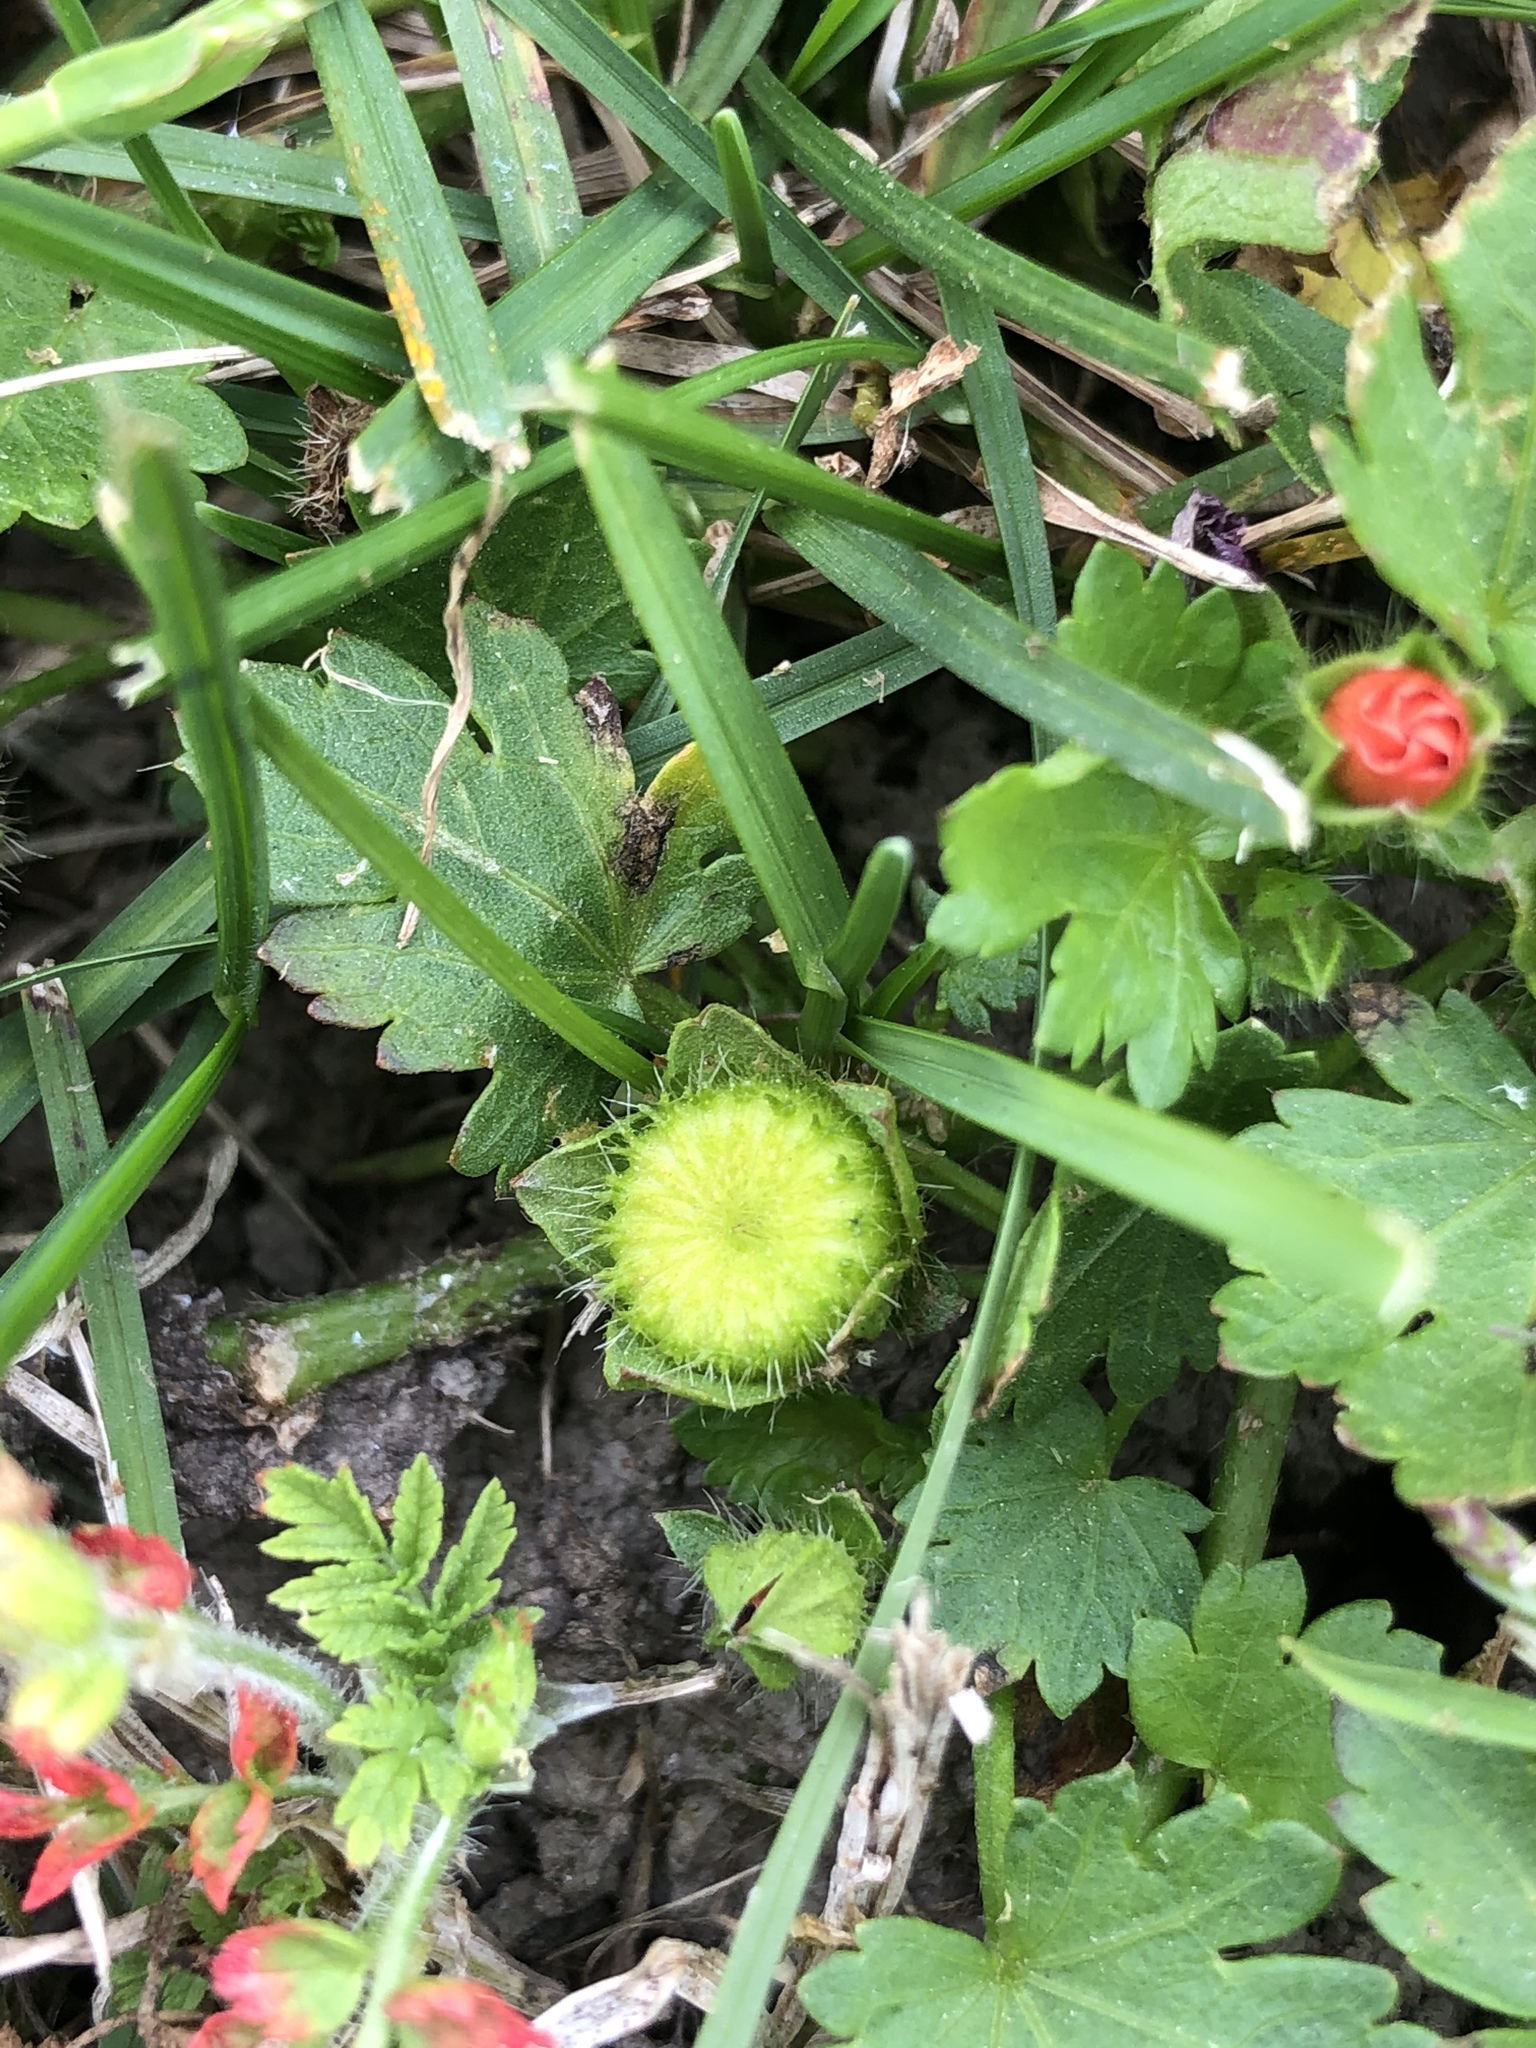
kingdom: Plantae
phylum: Tracheophyta
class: Magnoliopsida
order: Malvales
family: Malvaceae
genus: Modiola
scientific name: Modiola caroliniana
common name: Carolina bristlemallow
